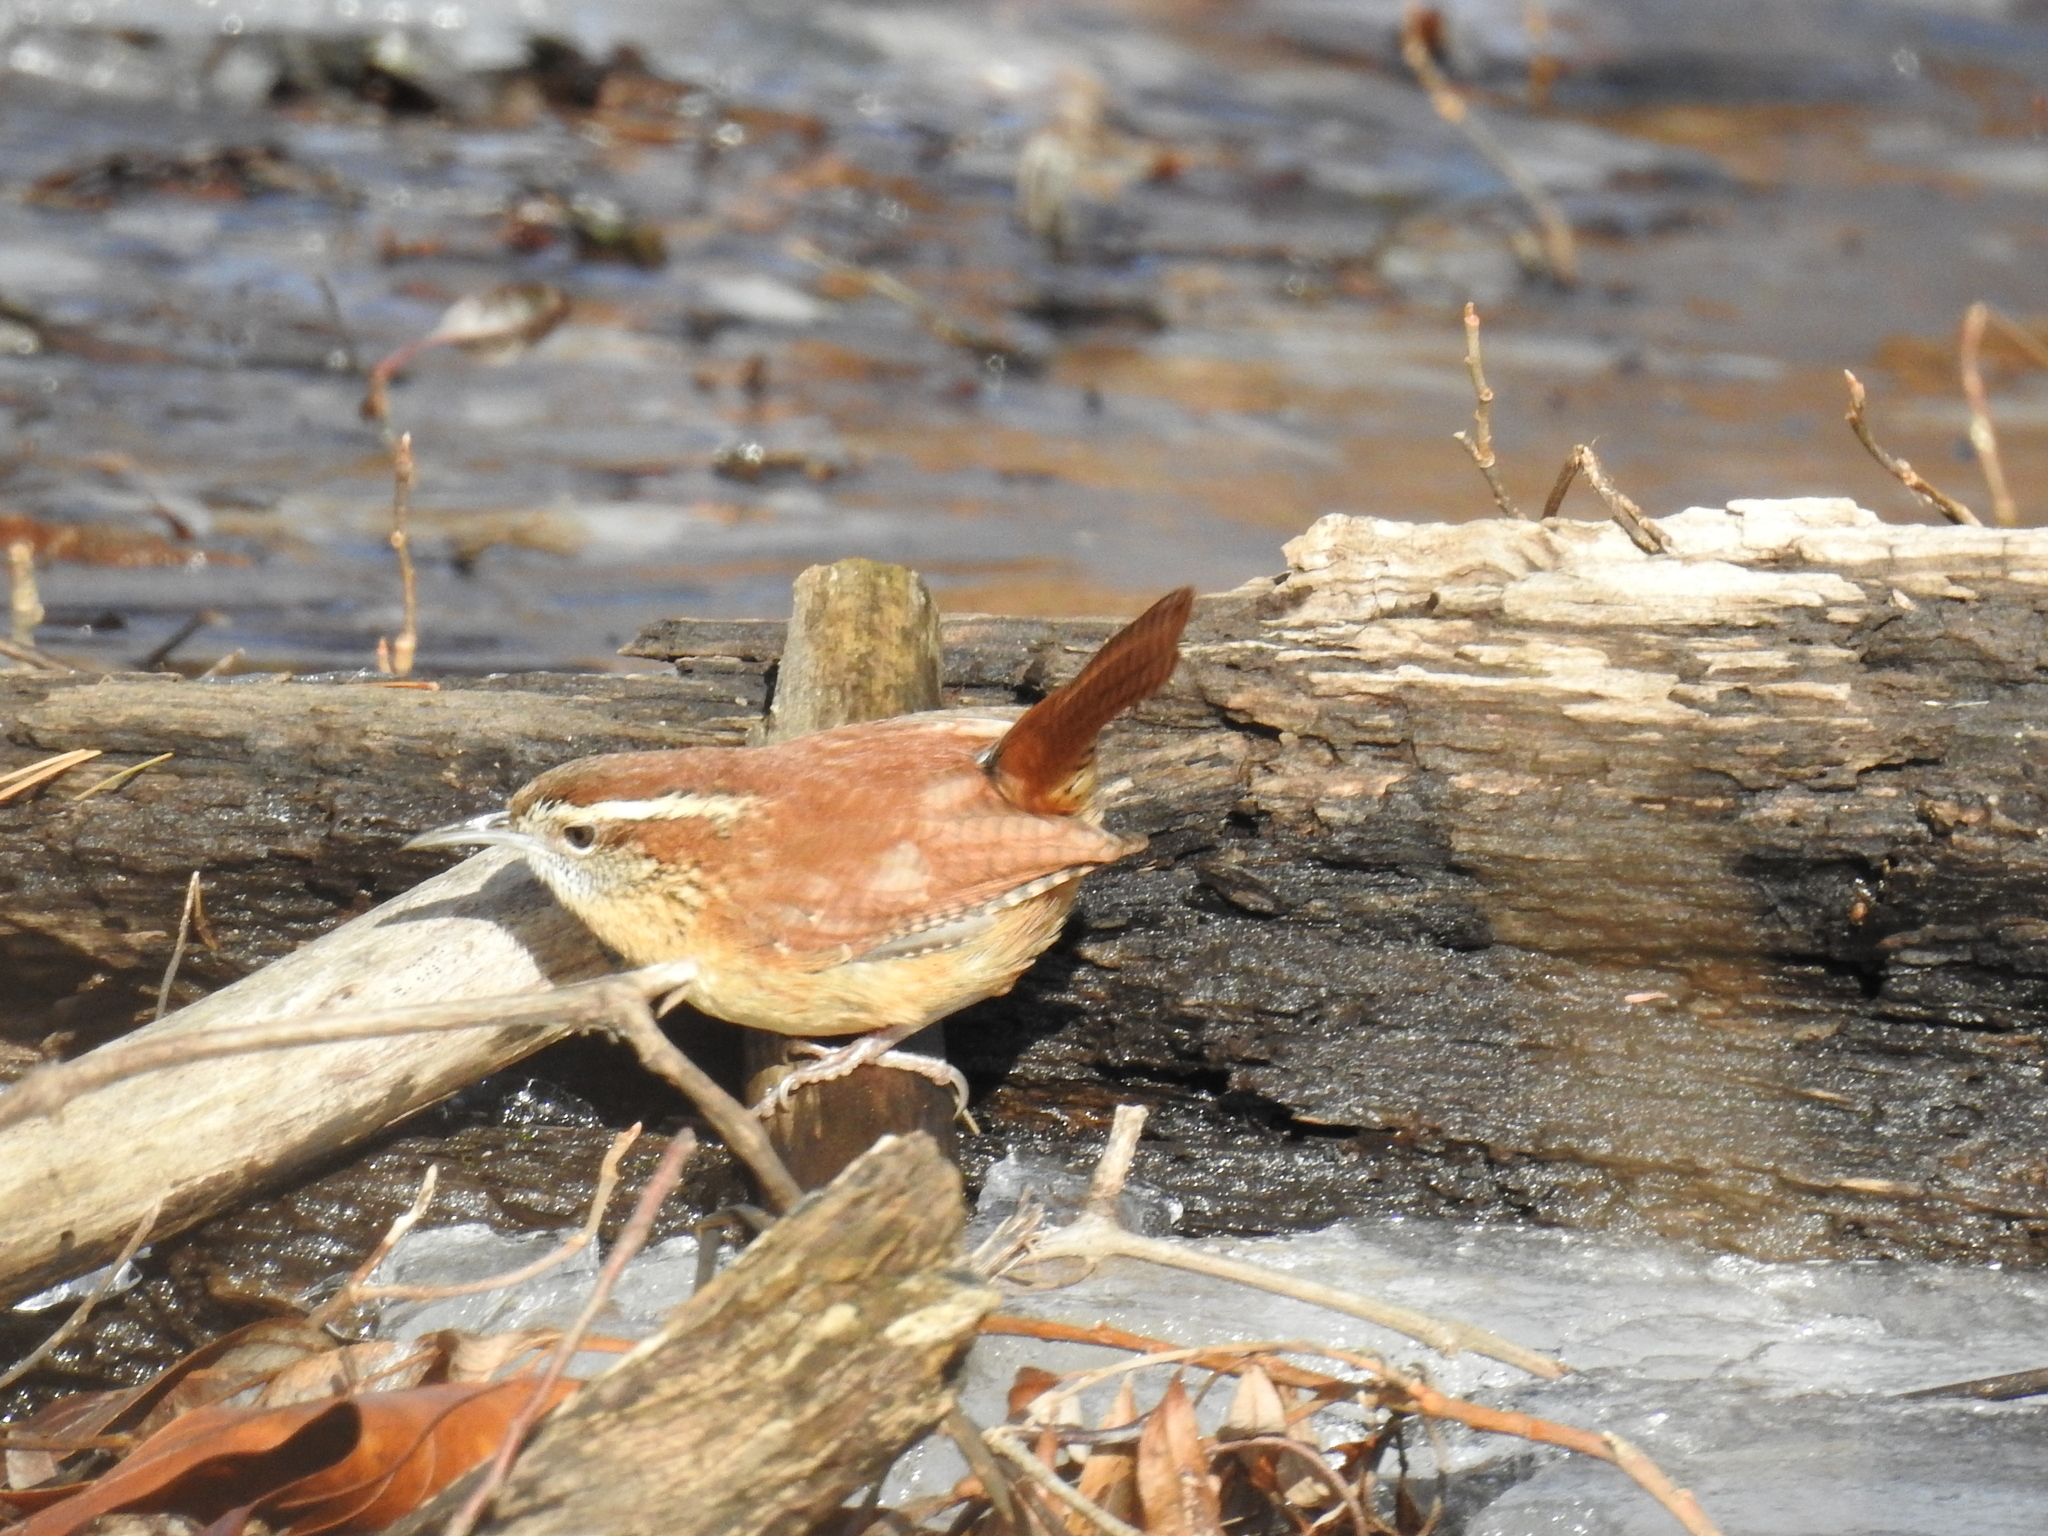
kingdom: Animalia
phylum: Chordata
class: Aves
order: Passeriformes
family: Troglodytidae
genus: Thryothorus
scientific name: Thryothorus ludovicianus
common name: Carolina wren
